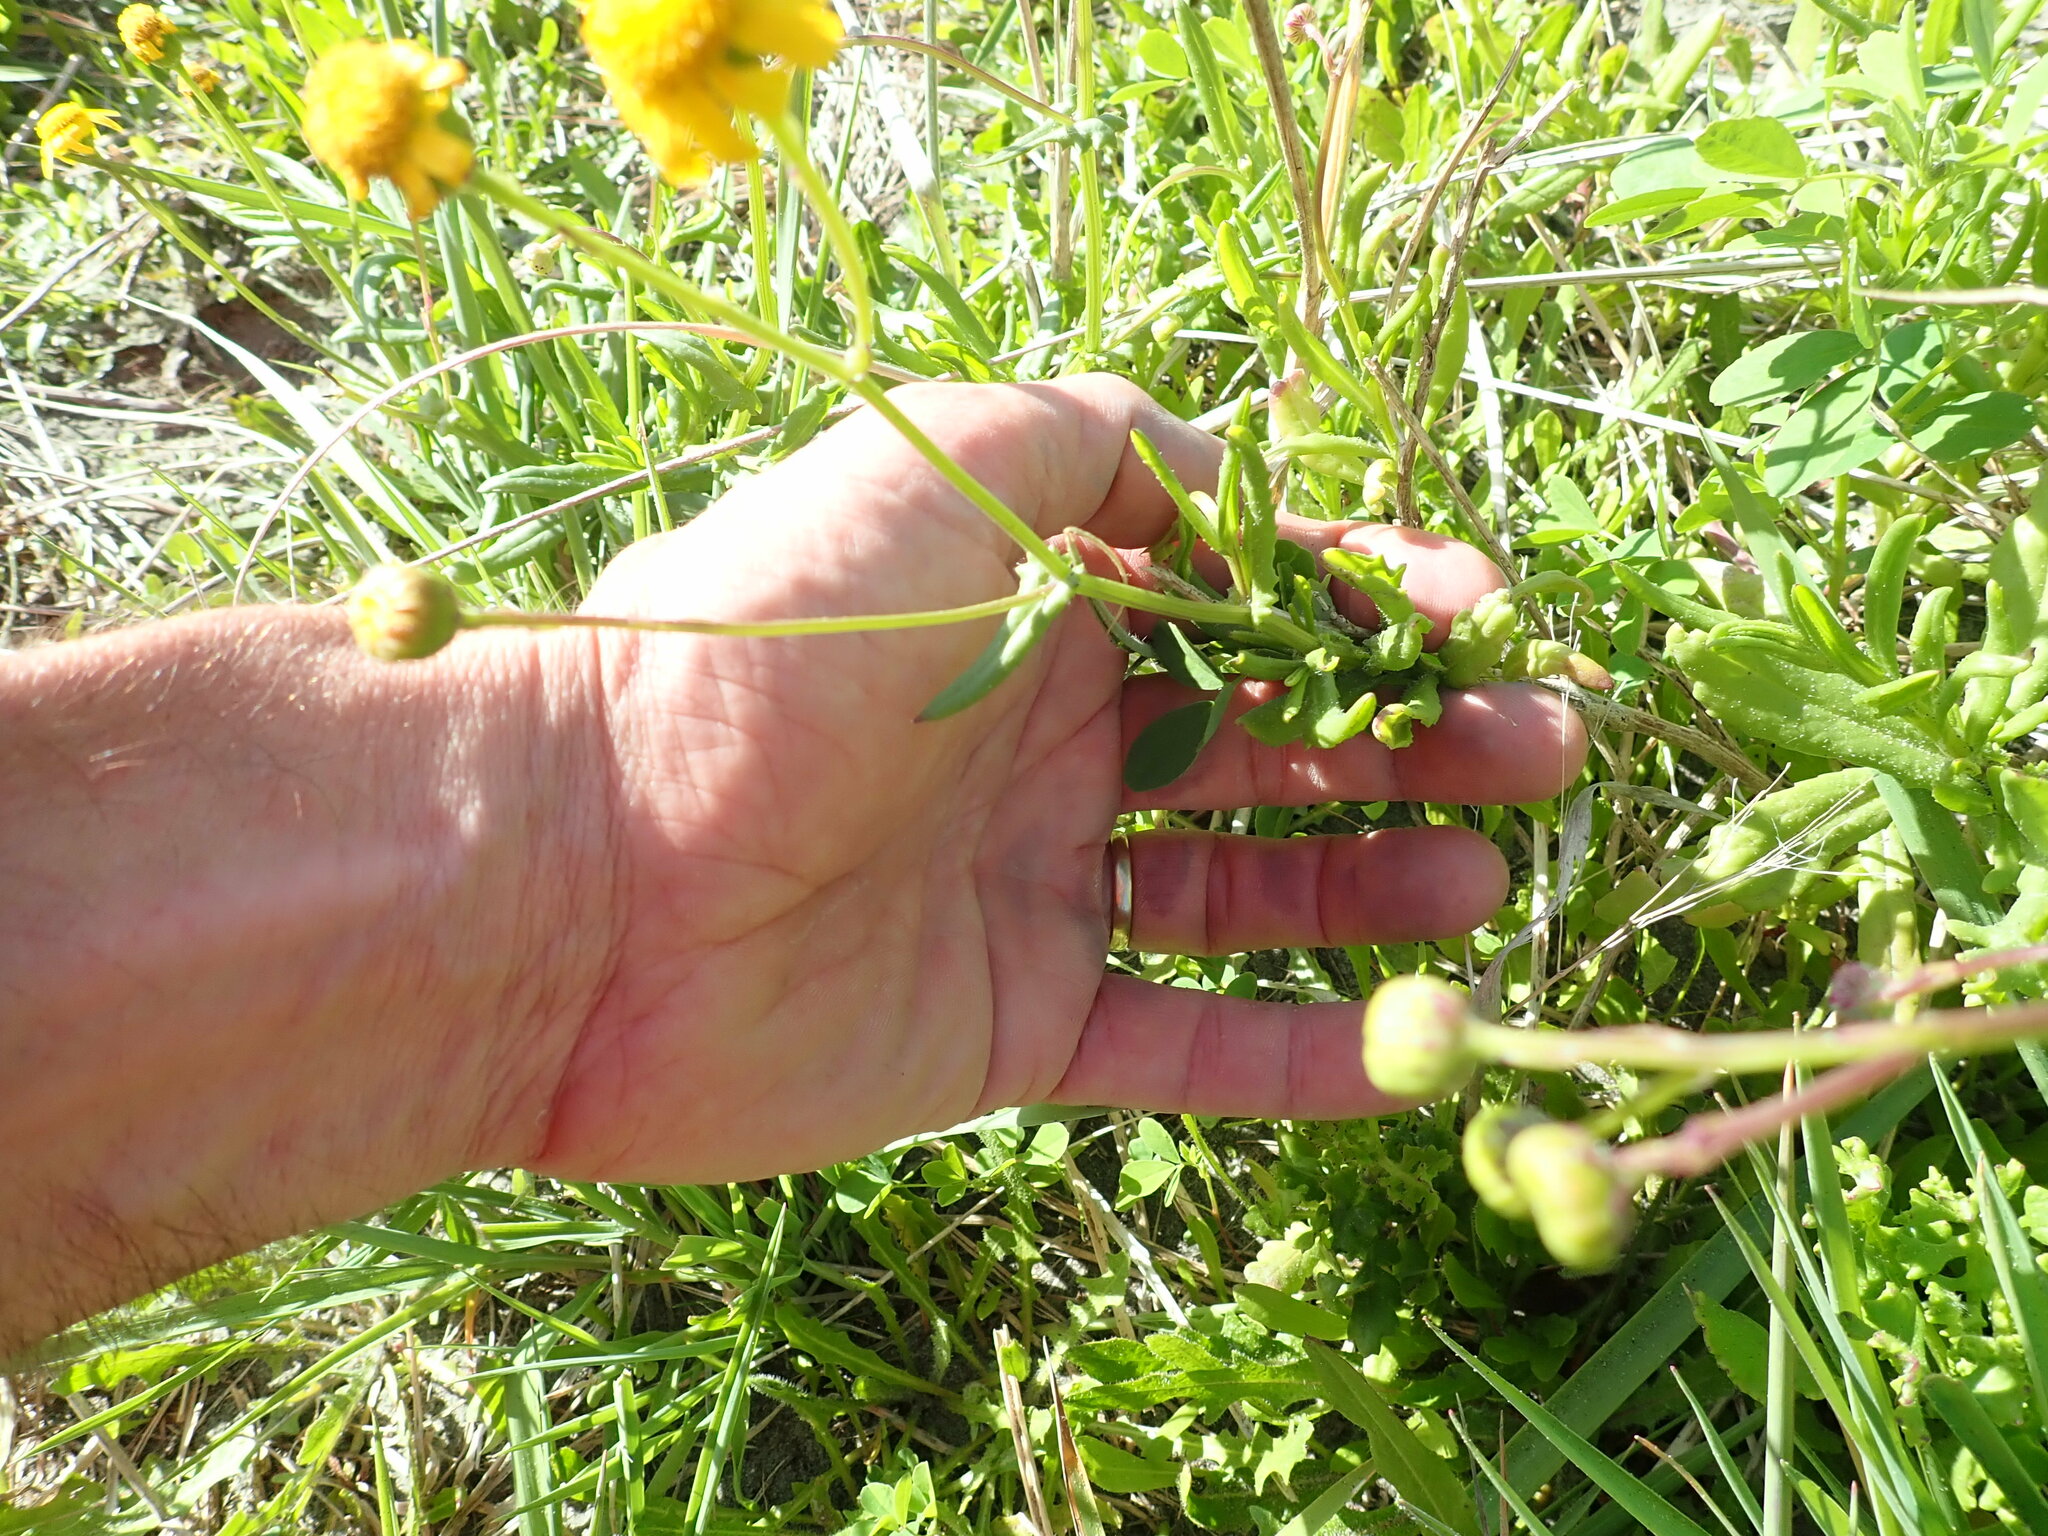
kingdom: Plantae
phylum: Tracheophyta
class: Magnoliopsida
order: Asterales
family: Asteraceae
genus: Senecio
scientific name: Senecio skirrhodon
